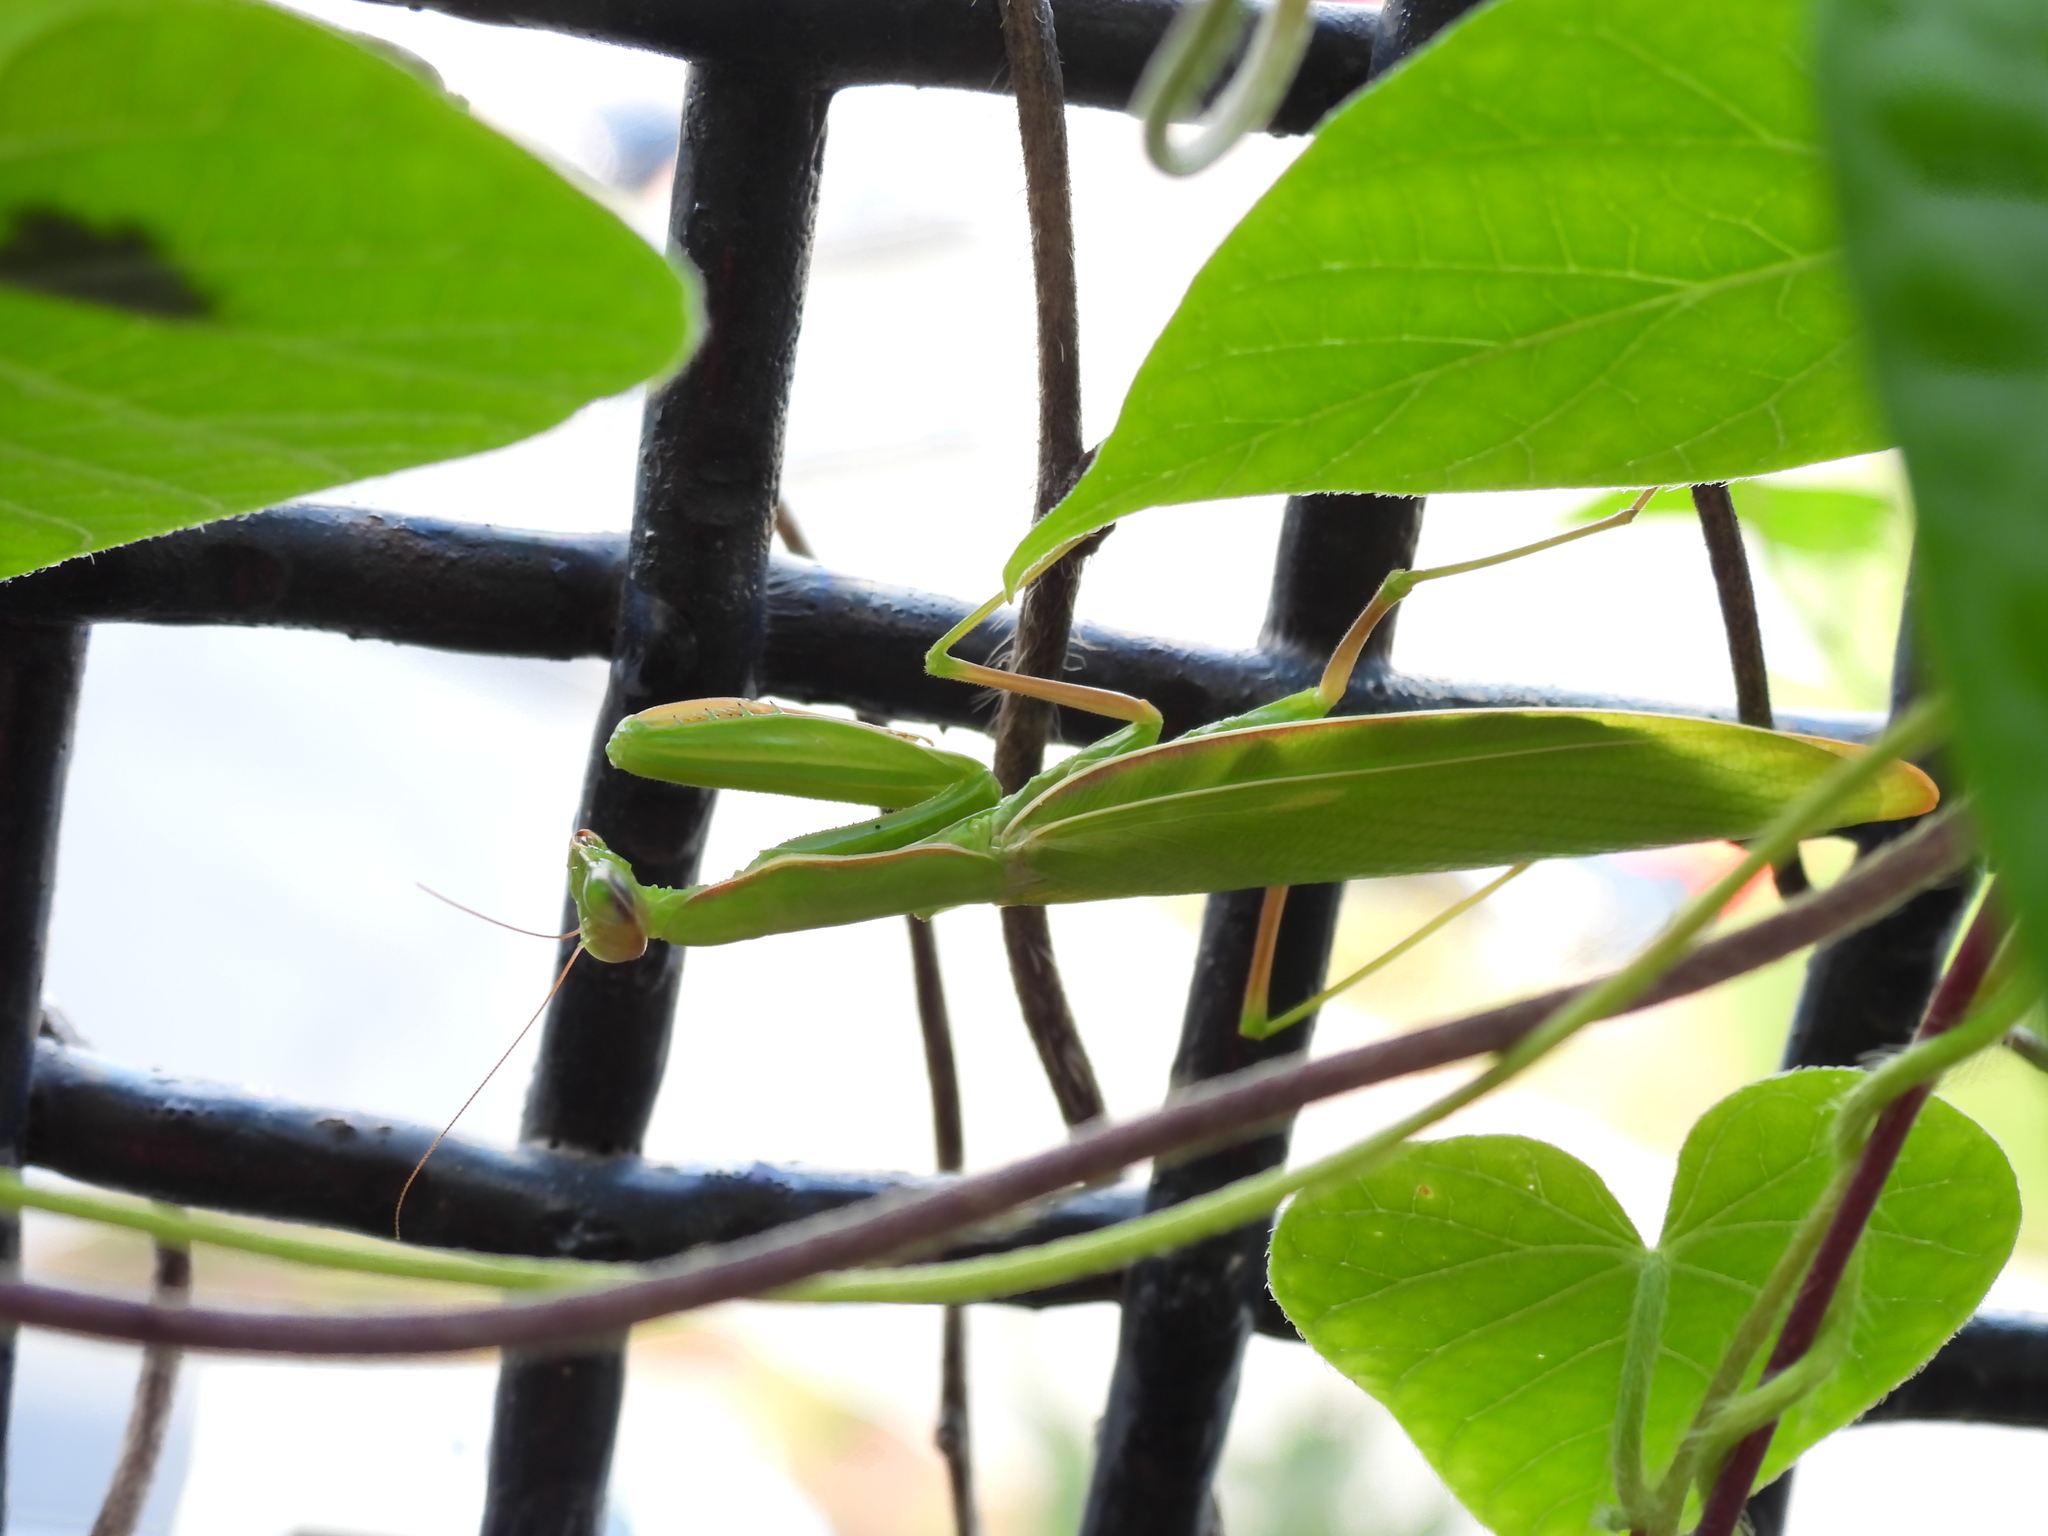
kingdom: Animalia
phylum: Arthropoda
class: Insecta
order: Mantodea
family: Mantidae
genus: Mantis
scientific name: Mantis religiosa
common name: Praying mantis
